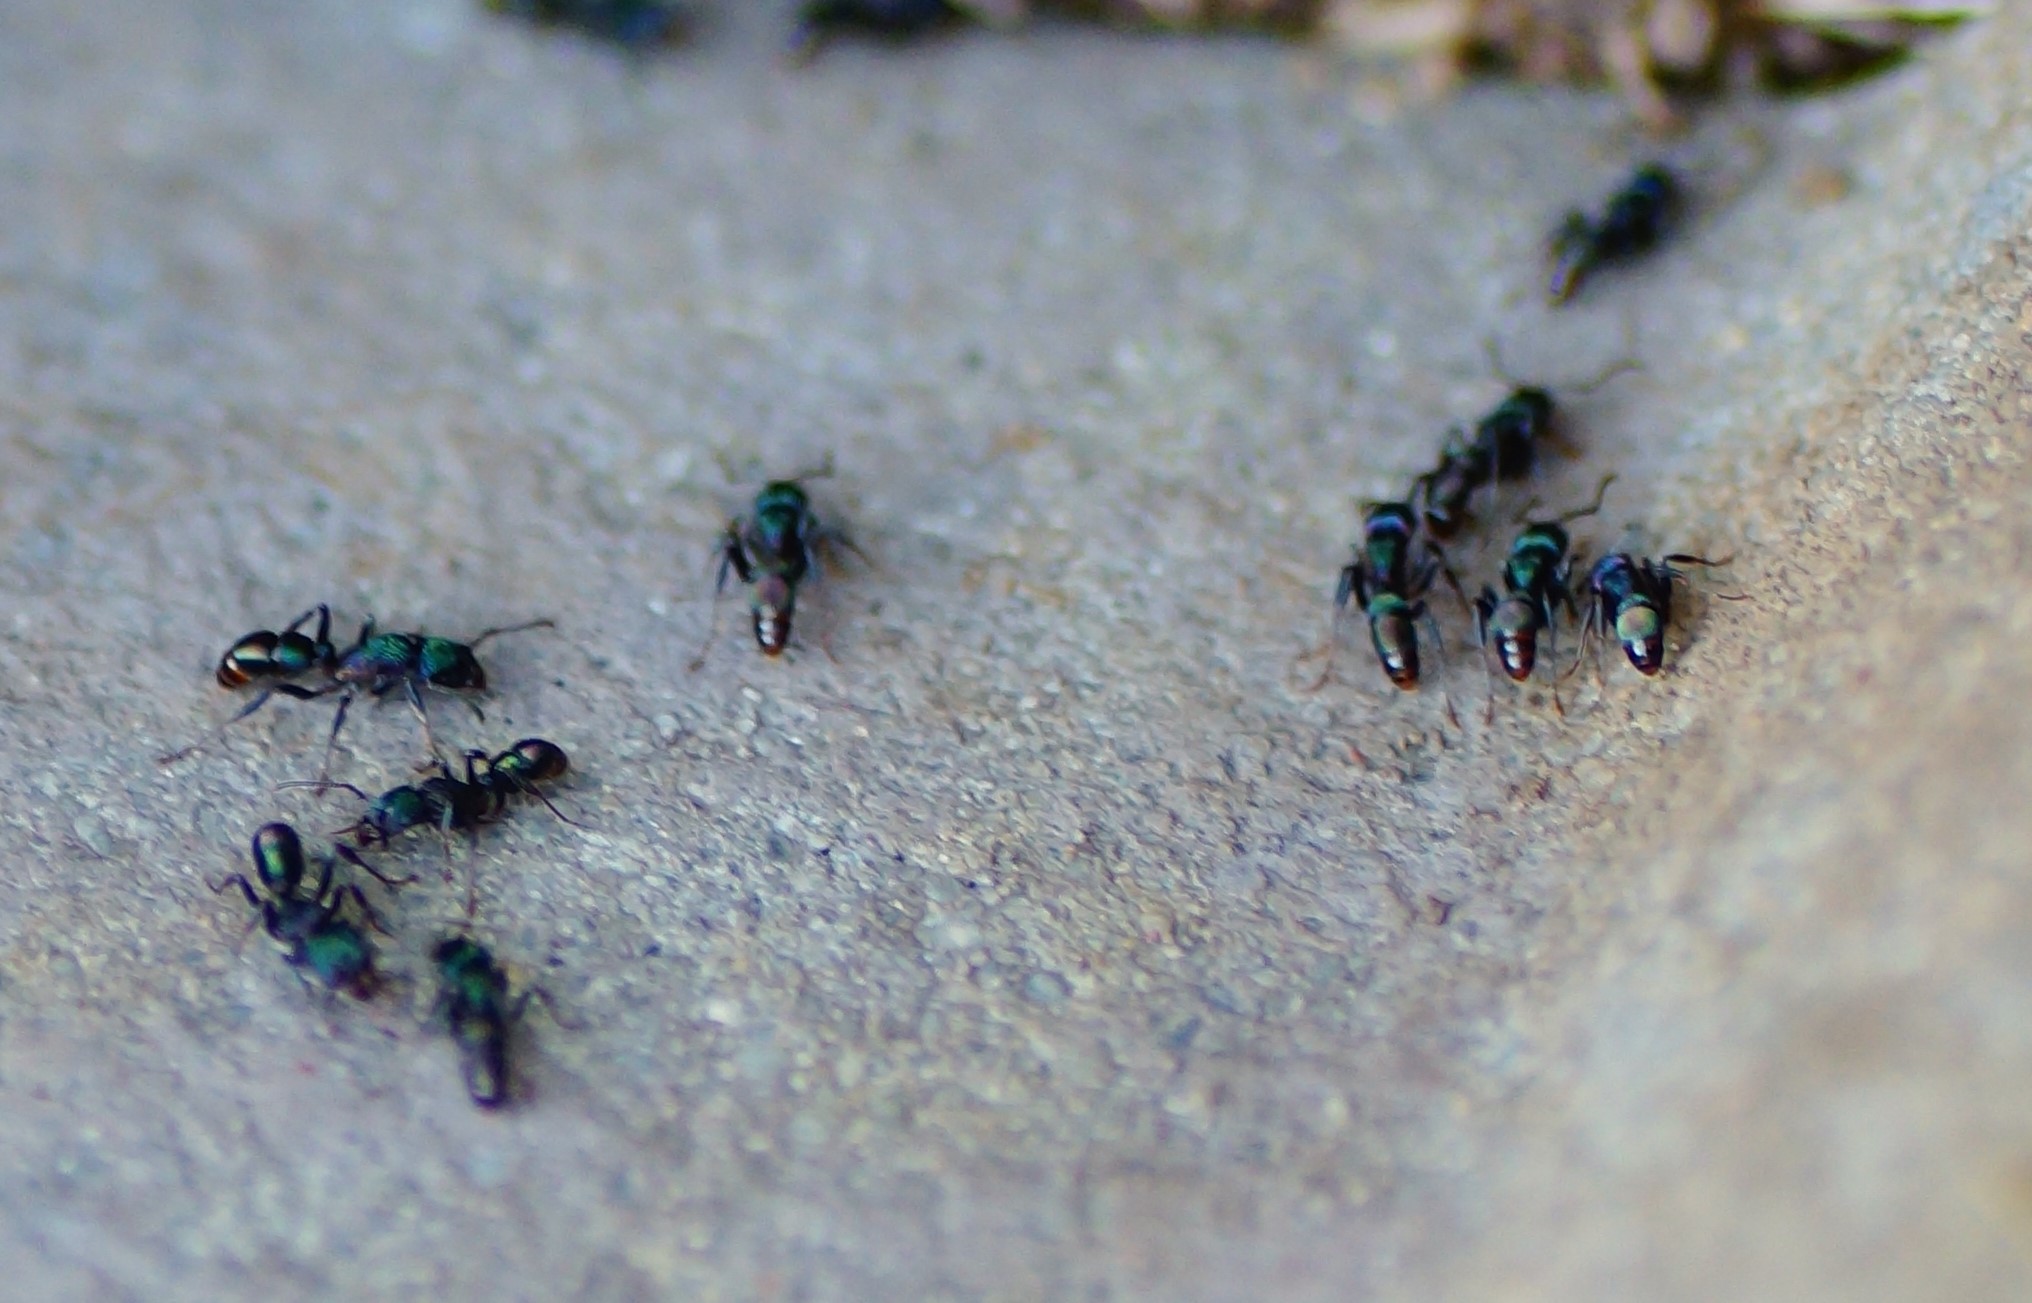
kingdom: Animalia
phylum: Arthropoda
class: Insecta
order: Hymenoptera
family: Formicidae
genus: Rhytidoponera
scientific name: Rhytidoponera metallica
